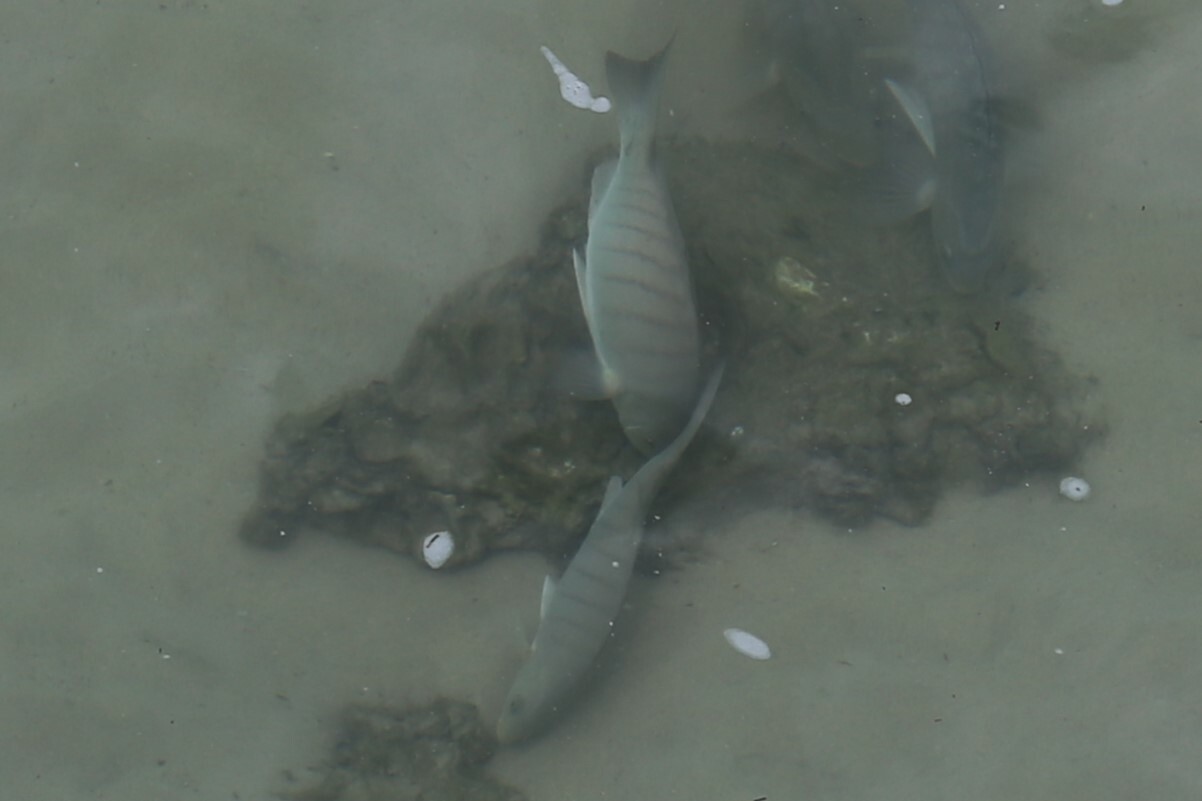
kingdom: Animalia
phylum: Chordata
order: Perciformes
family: Kyphosidae
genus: Girella
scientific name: Girella tricuspidata
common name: Parore
